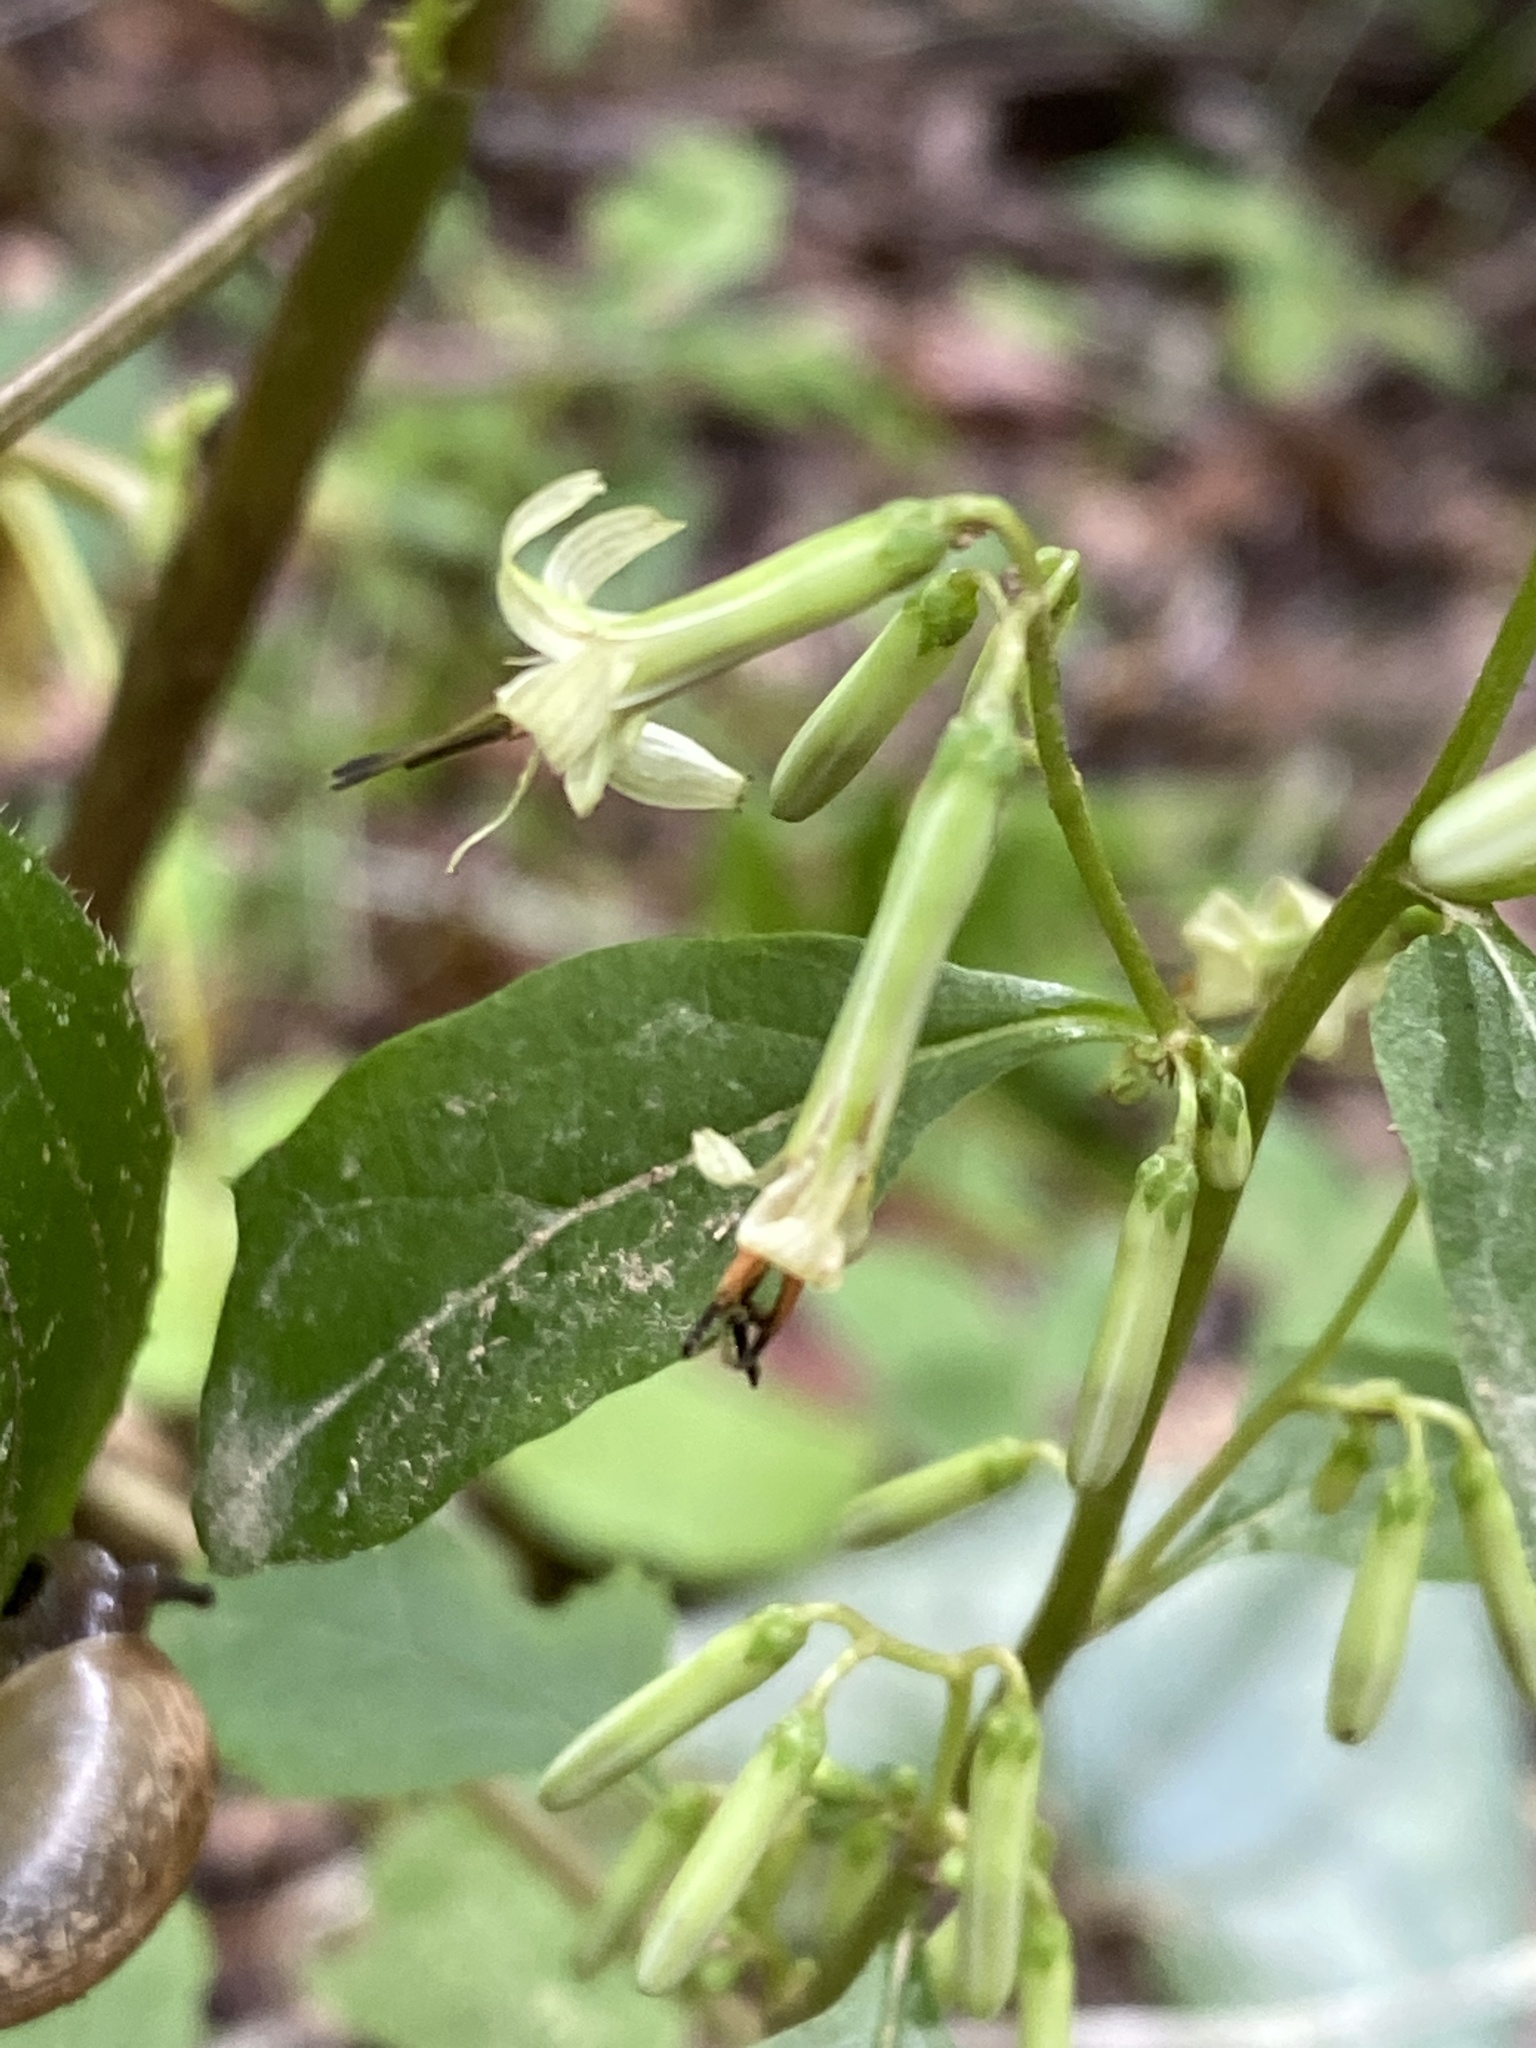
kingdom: Plantae
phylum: Tracheophyta
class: Magnoliopsida
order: Asterales
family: Asteraceae
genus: Nabalus
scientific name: Nabalus altissima
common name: Tall rattlesnakeroot
